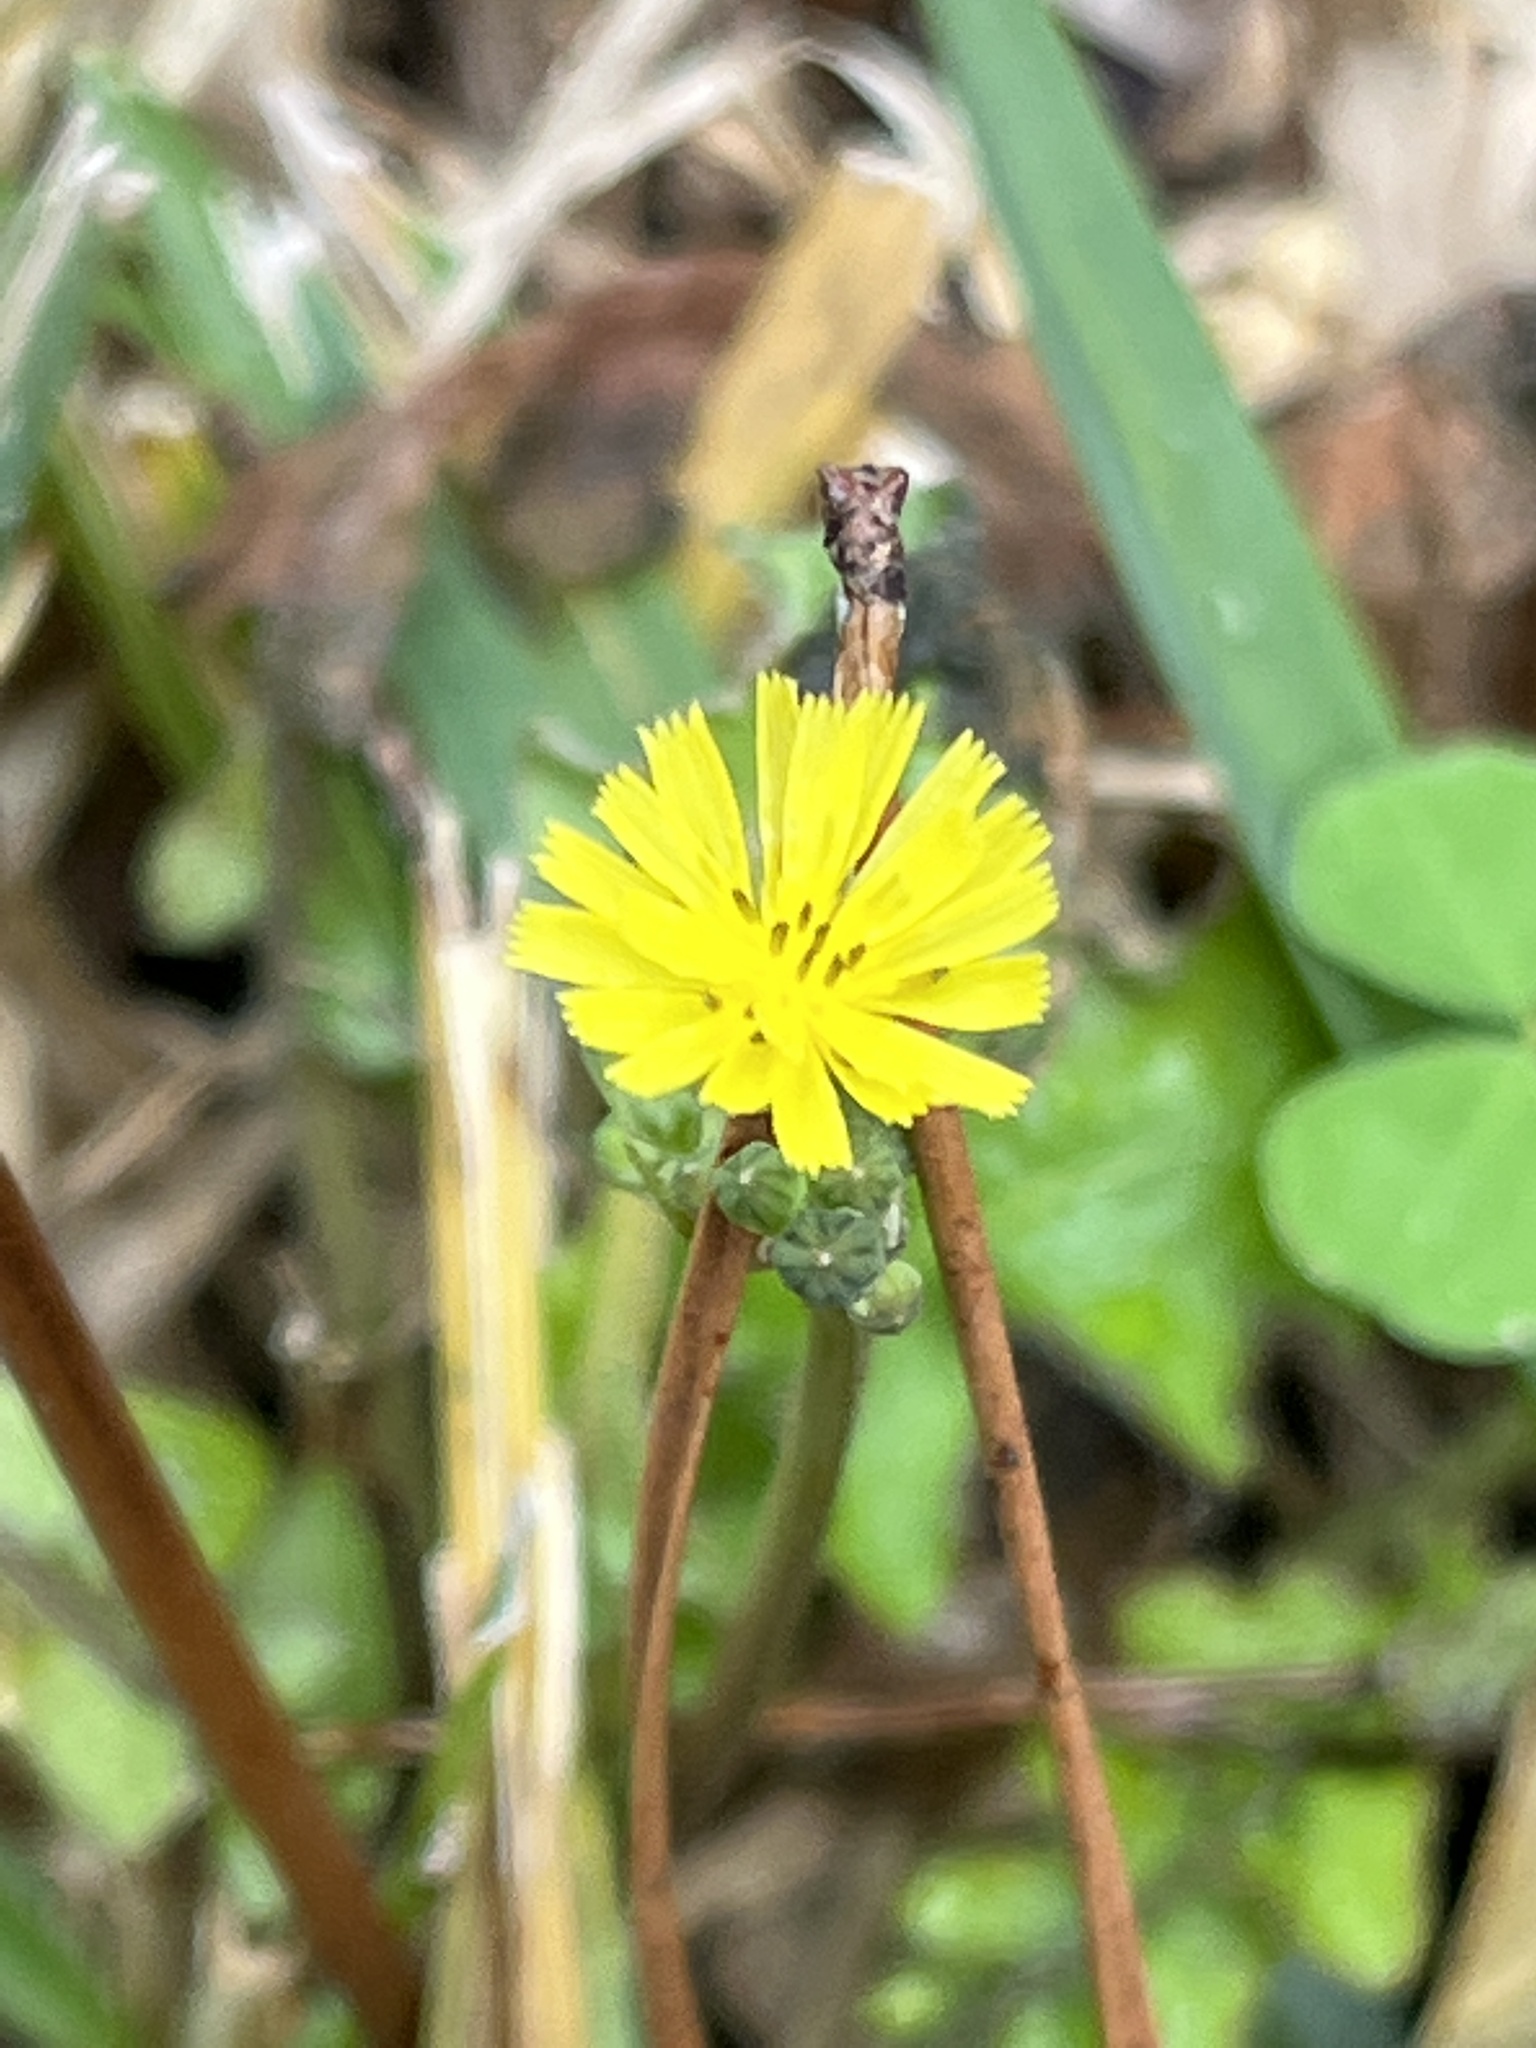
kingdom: Plantae
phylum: Tracheophyta
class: Magnoliopsida
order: Asterales
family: Asteraceae
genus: Youngia
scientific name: Youngia japonica
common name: Oriental false hawksbeard
